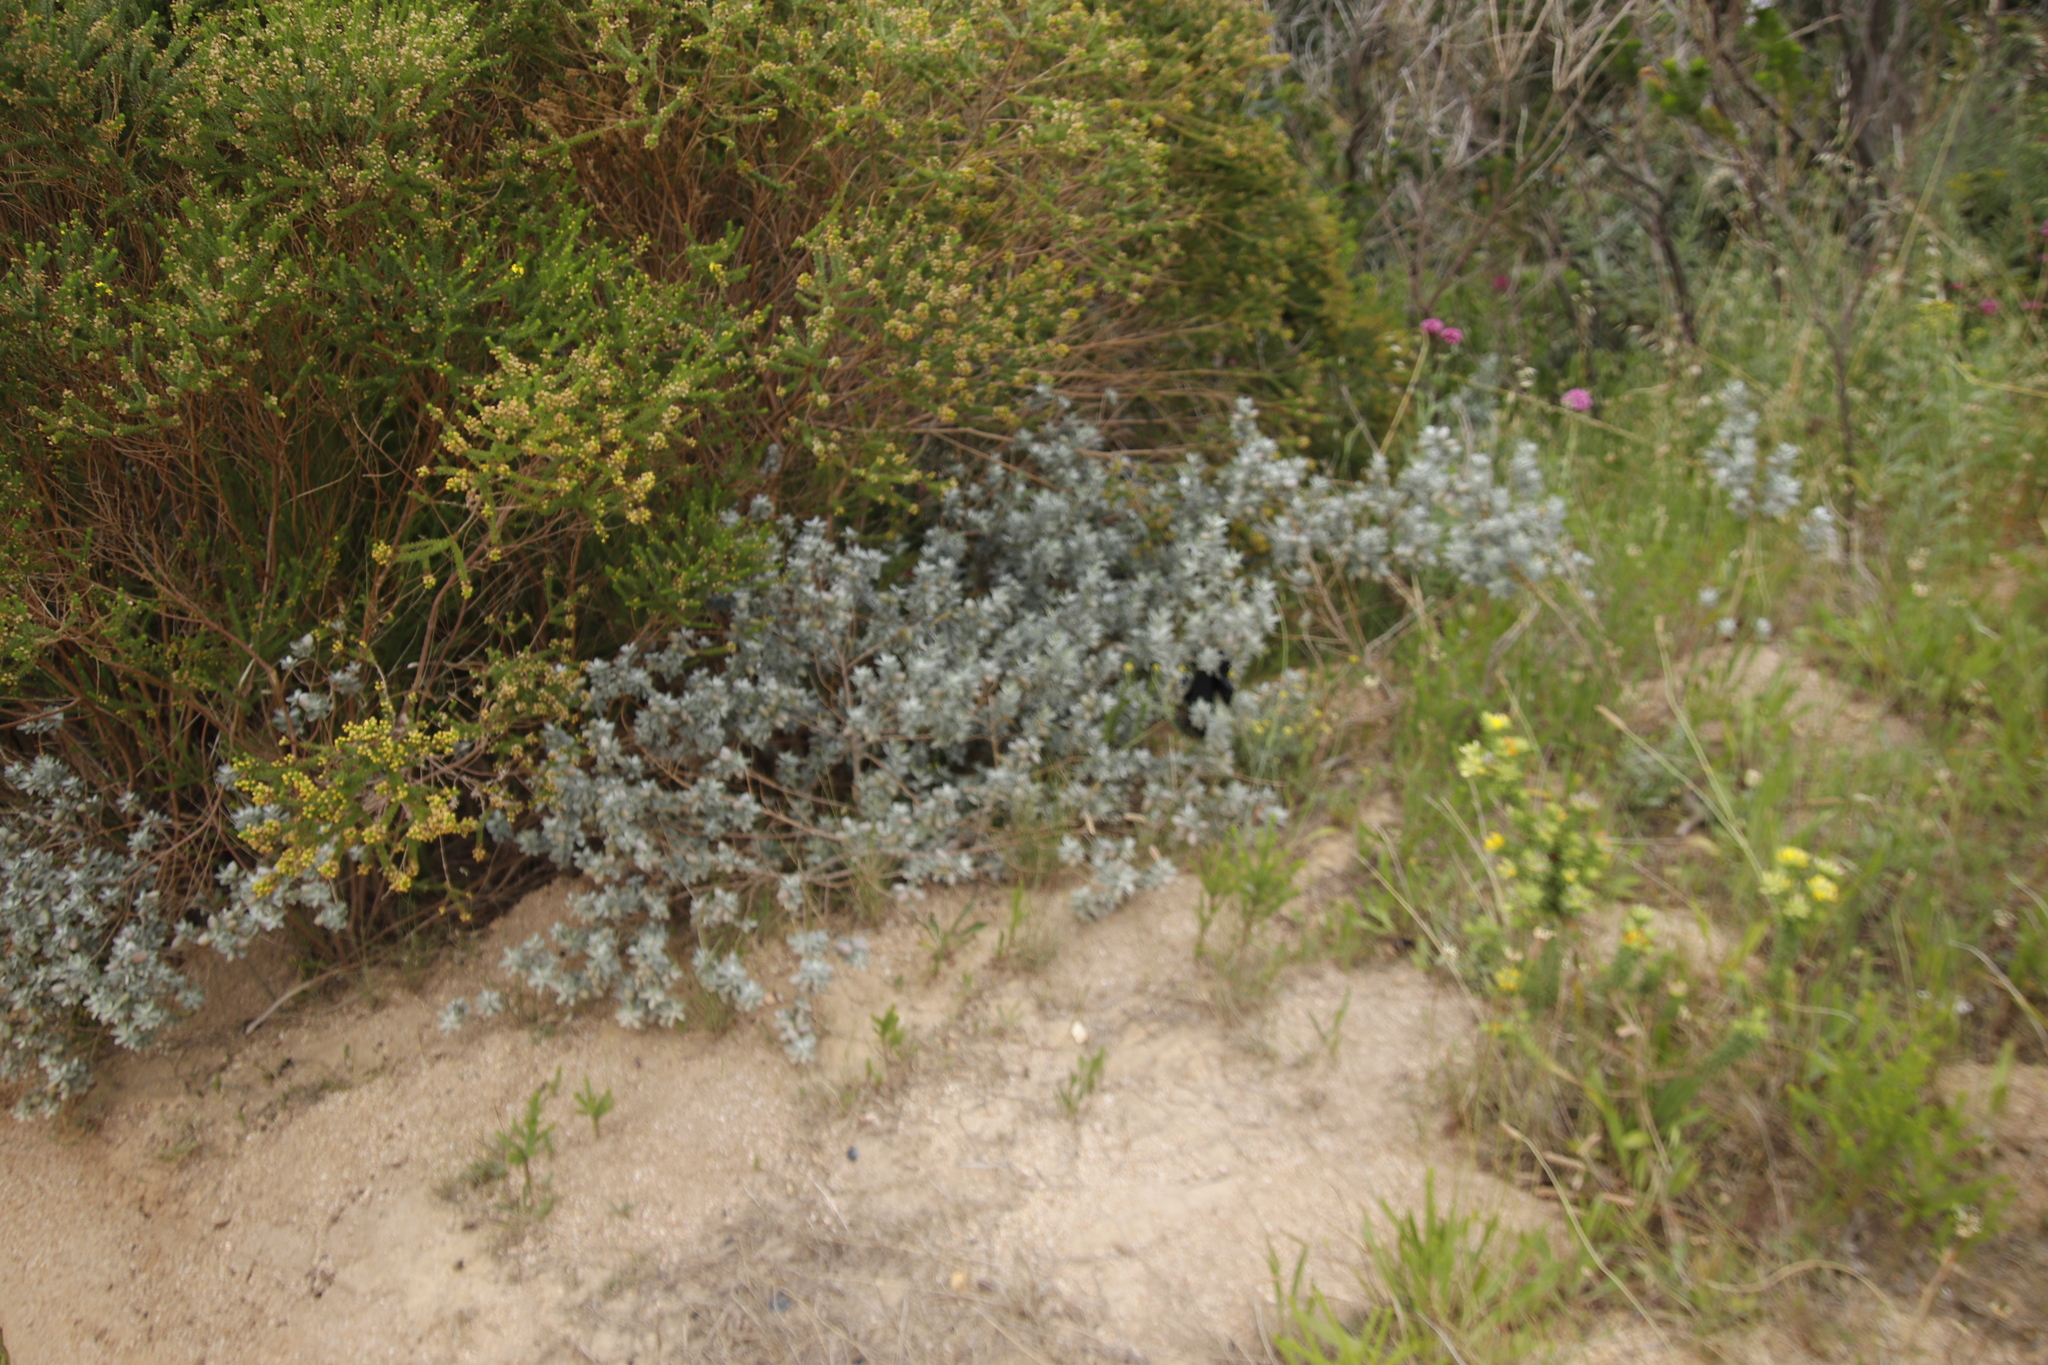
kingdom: Plantae
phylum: Tracheophyta
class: Magnoliopsida
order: Fabales
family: Fabaceae
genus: Podalyria
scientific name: Podalyria sericea
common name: Silver podalyria
